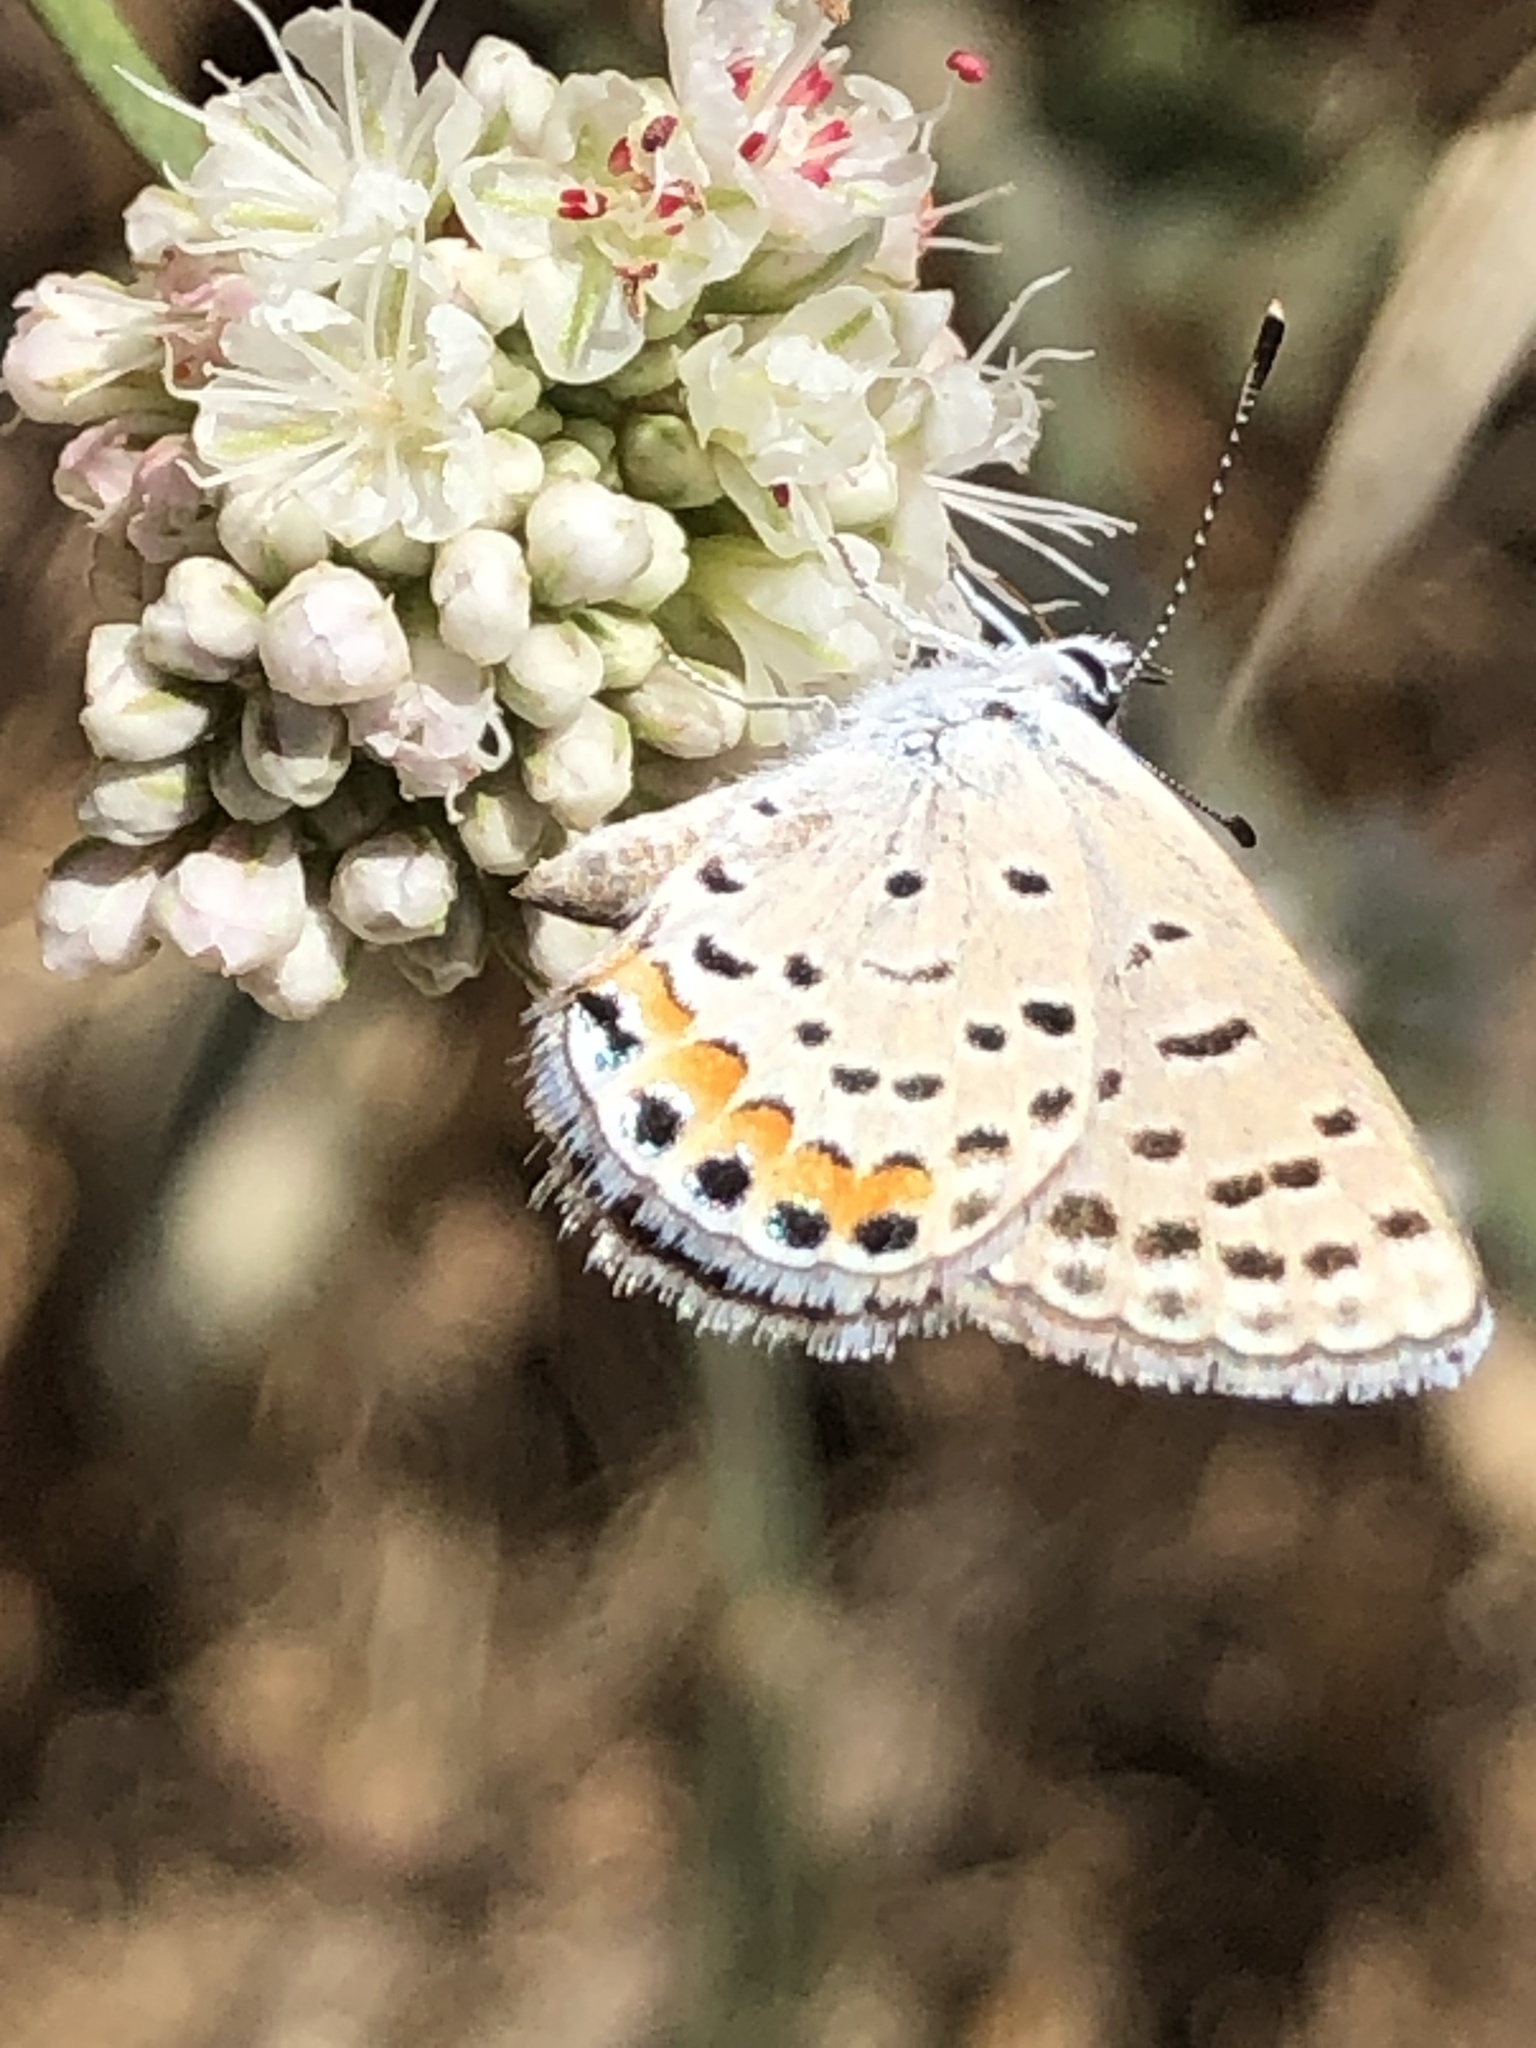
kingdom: Animalia
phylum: Arthropoda
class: Insecta
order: Lepidoptera
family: Lycaenidae
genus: Icaricia
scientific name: Icaricia acmon
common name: Acmon blue
